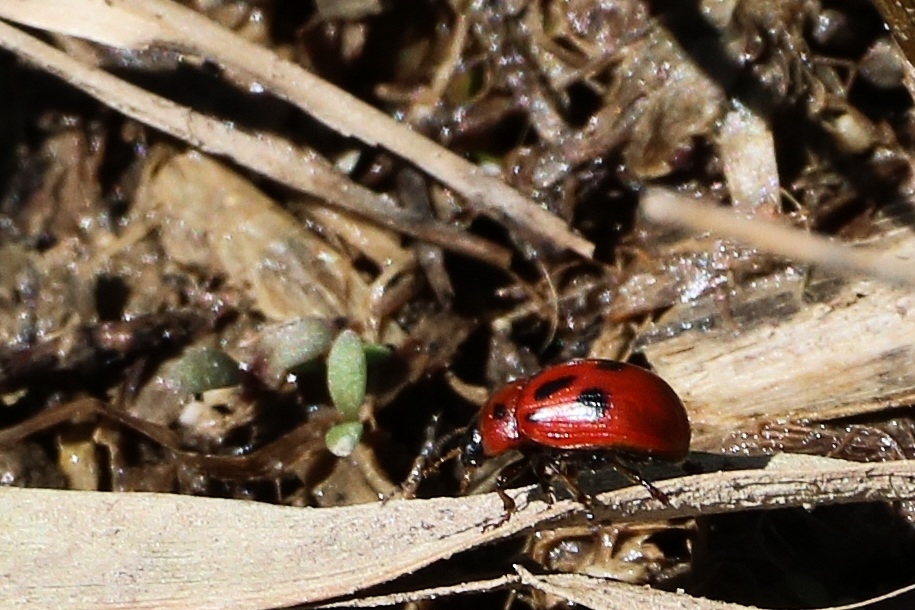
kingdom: Animalia
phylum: Arthropoda
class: Insecta
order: Coleoptera
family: Chrysomelidae
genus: Gonioctena
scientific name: Gonioctena fornicata
